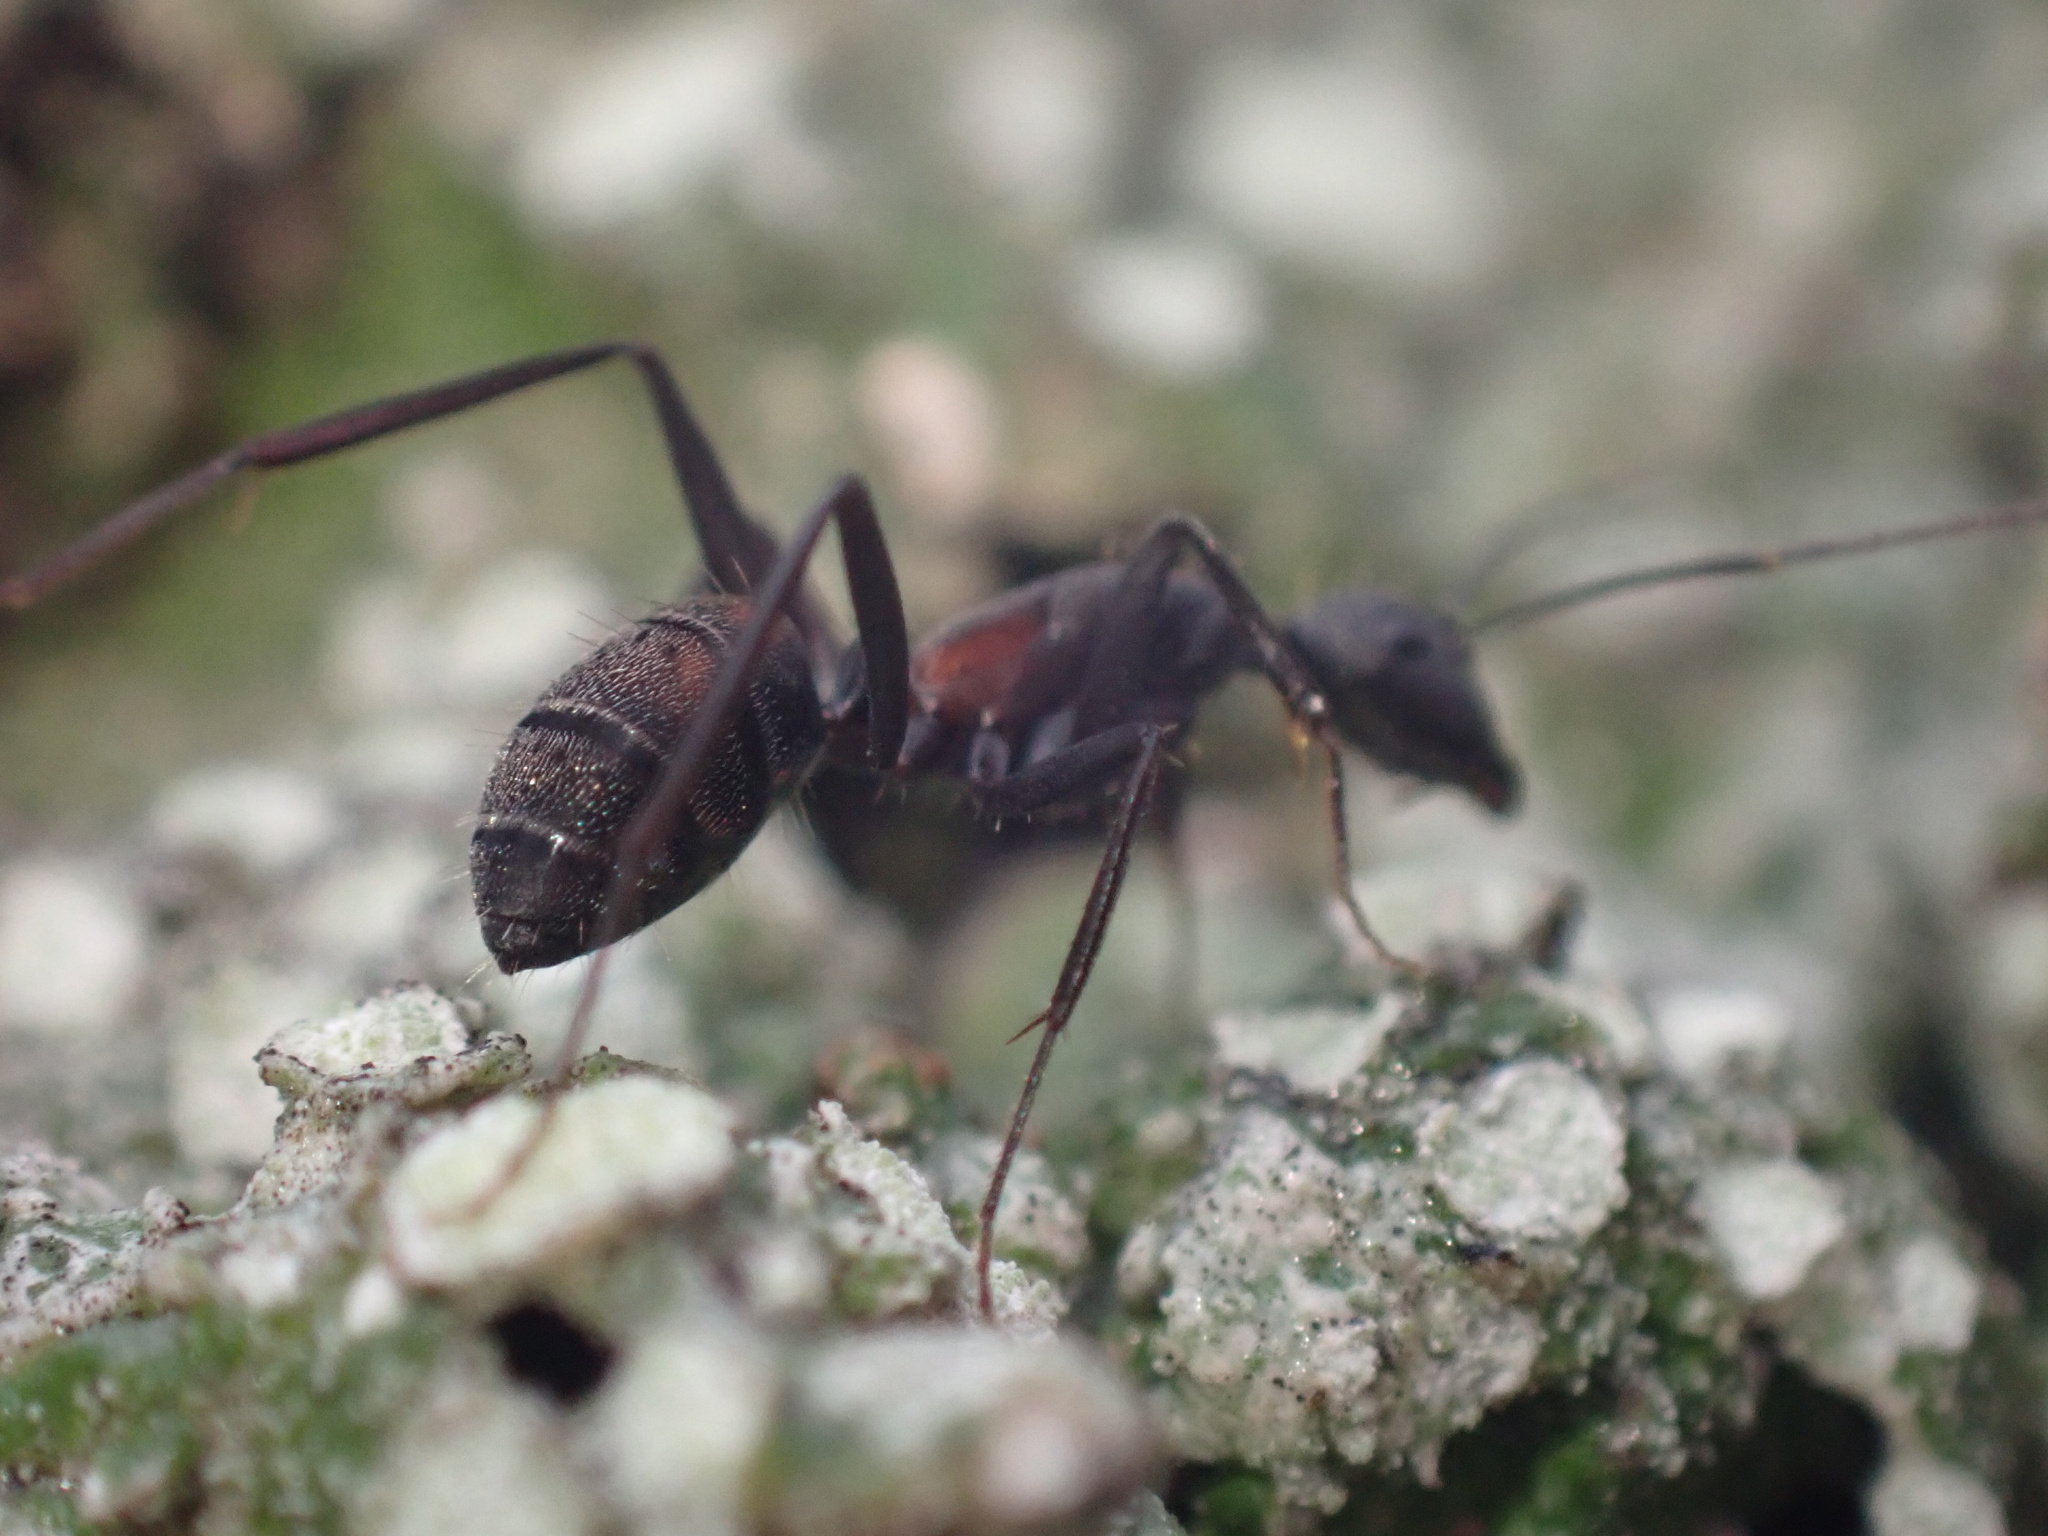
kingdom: Animalia
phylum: Arthropoda
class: Insecta
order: Hymenoptera
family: Formicidae
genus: Camponotus
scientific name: Camponotus cruentatus
